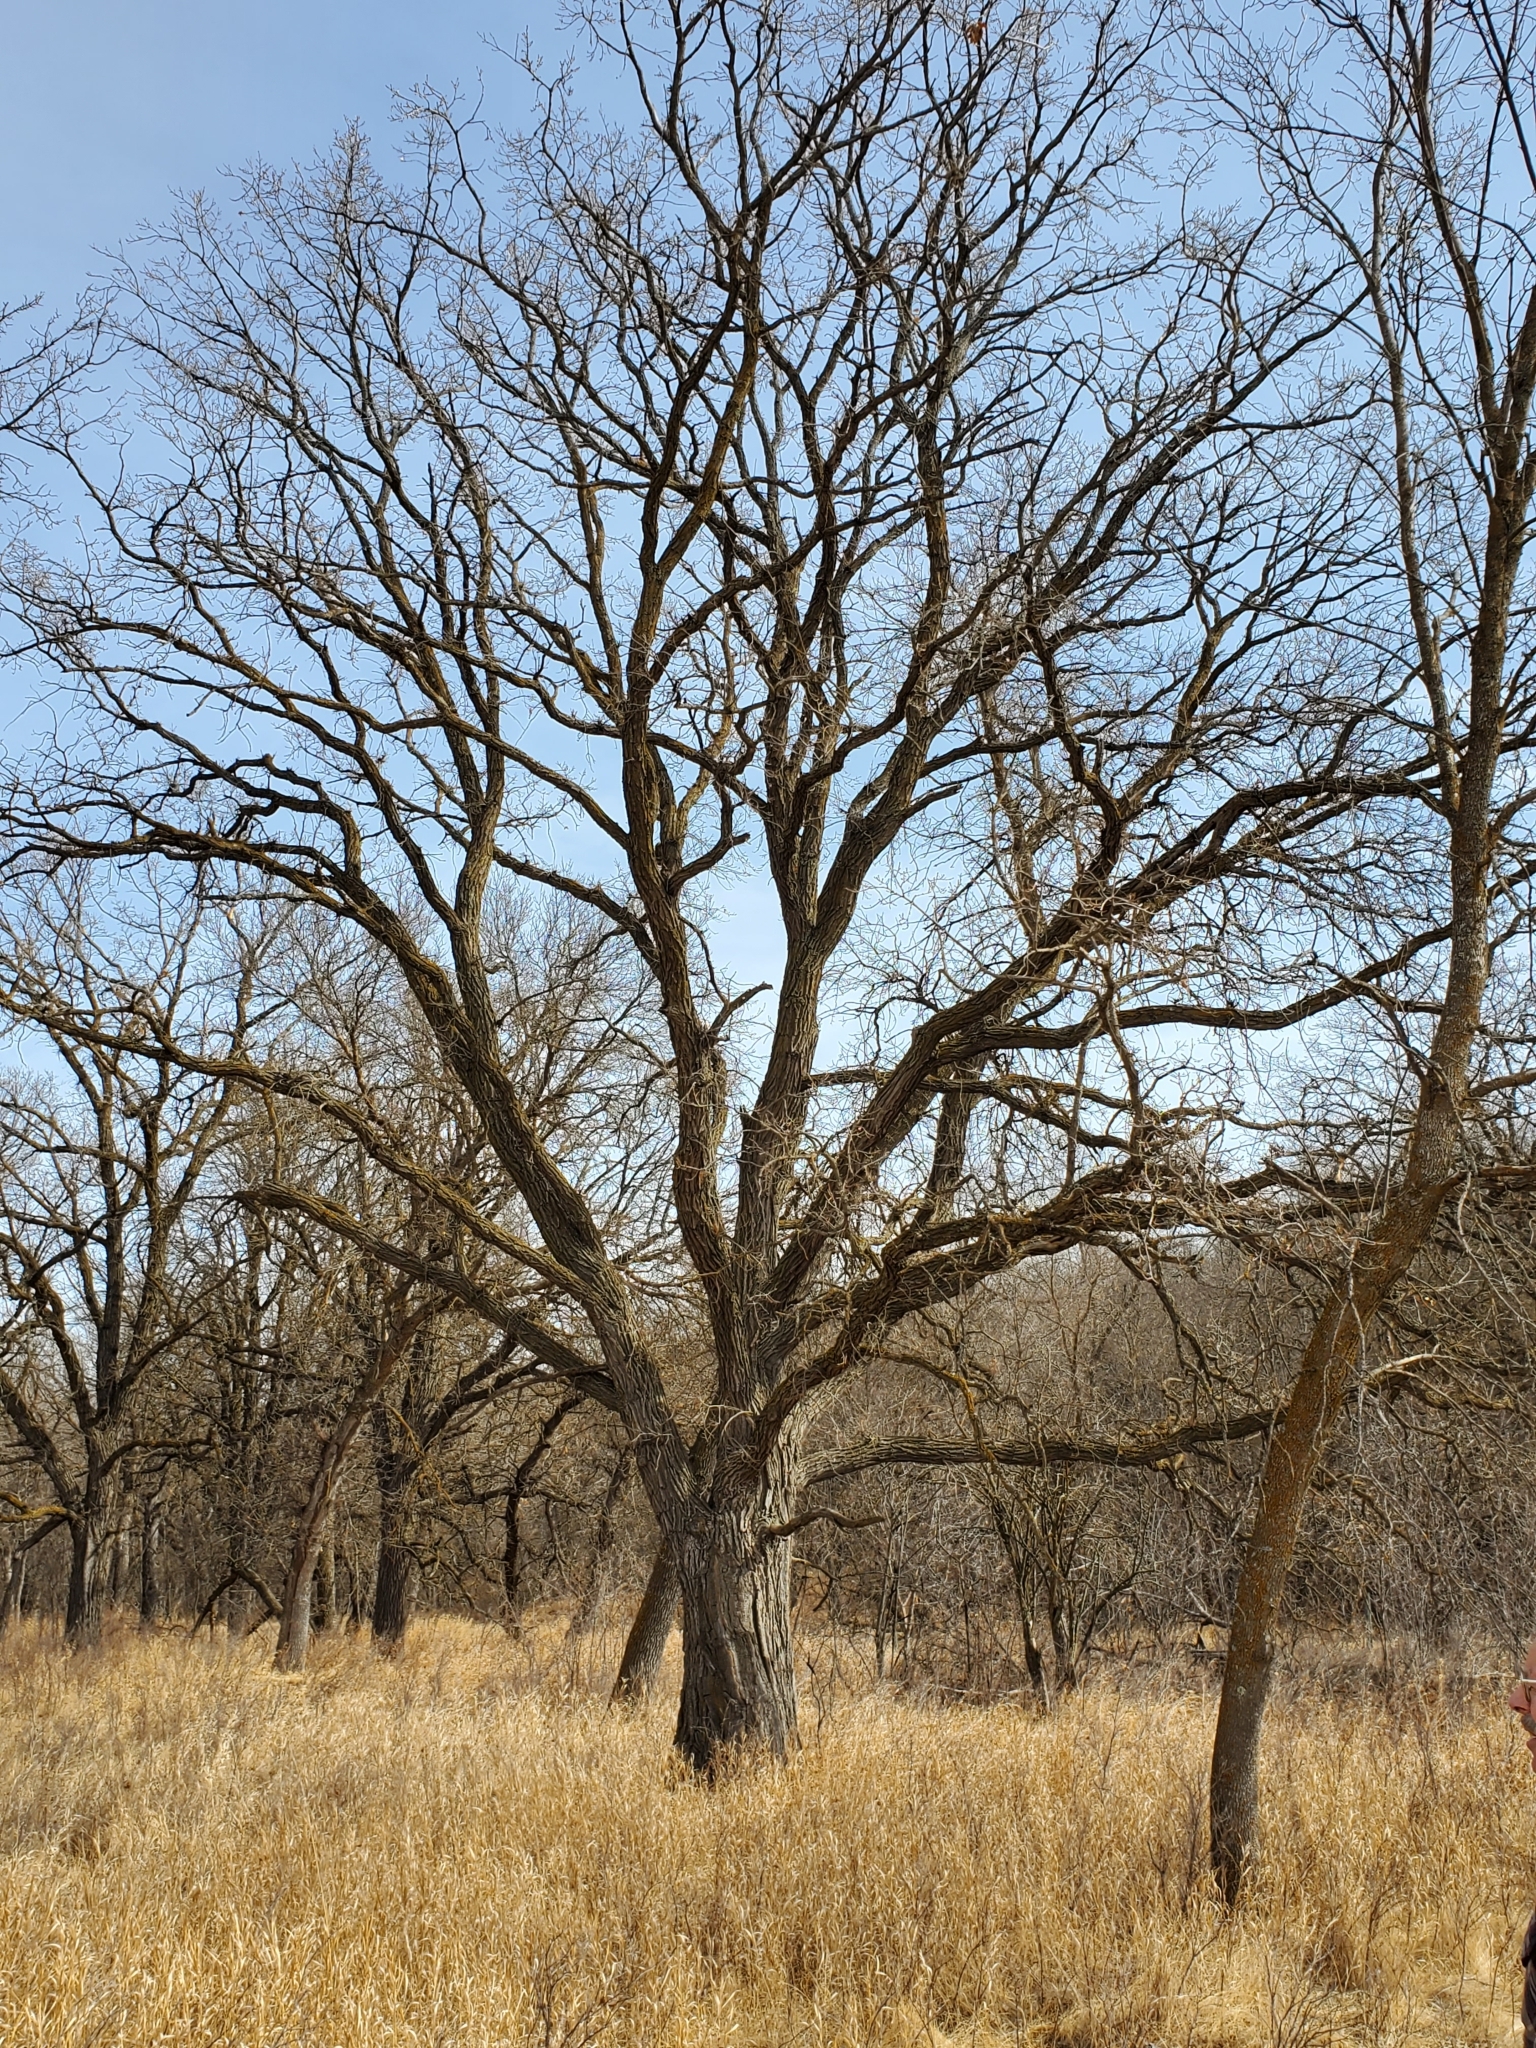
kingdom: Plantae
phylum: Tracheophyta
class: Magnoliopsida
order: Fagales
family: Fagaceae
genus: Quercus
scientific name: Quercus macrocarpa
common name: Bur oak
